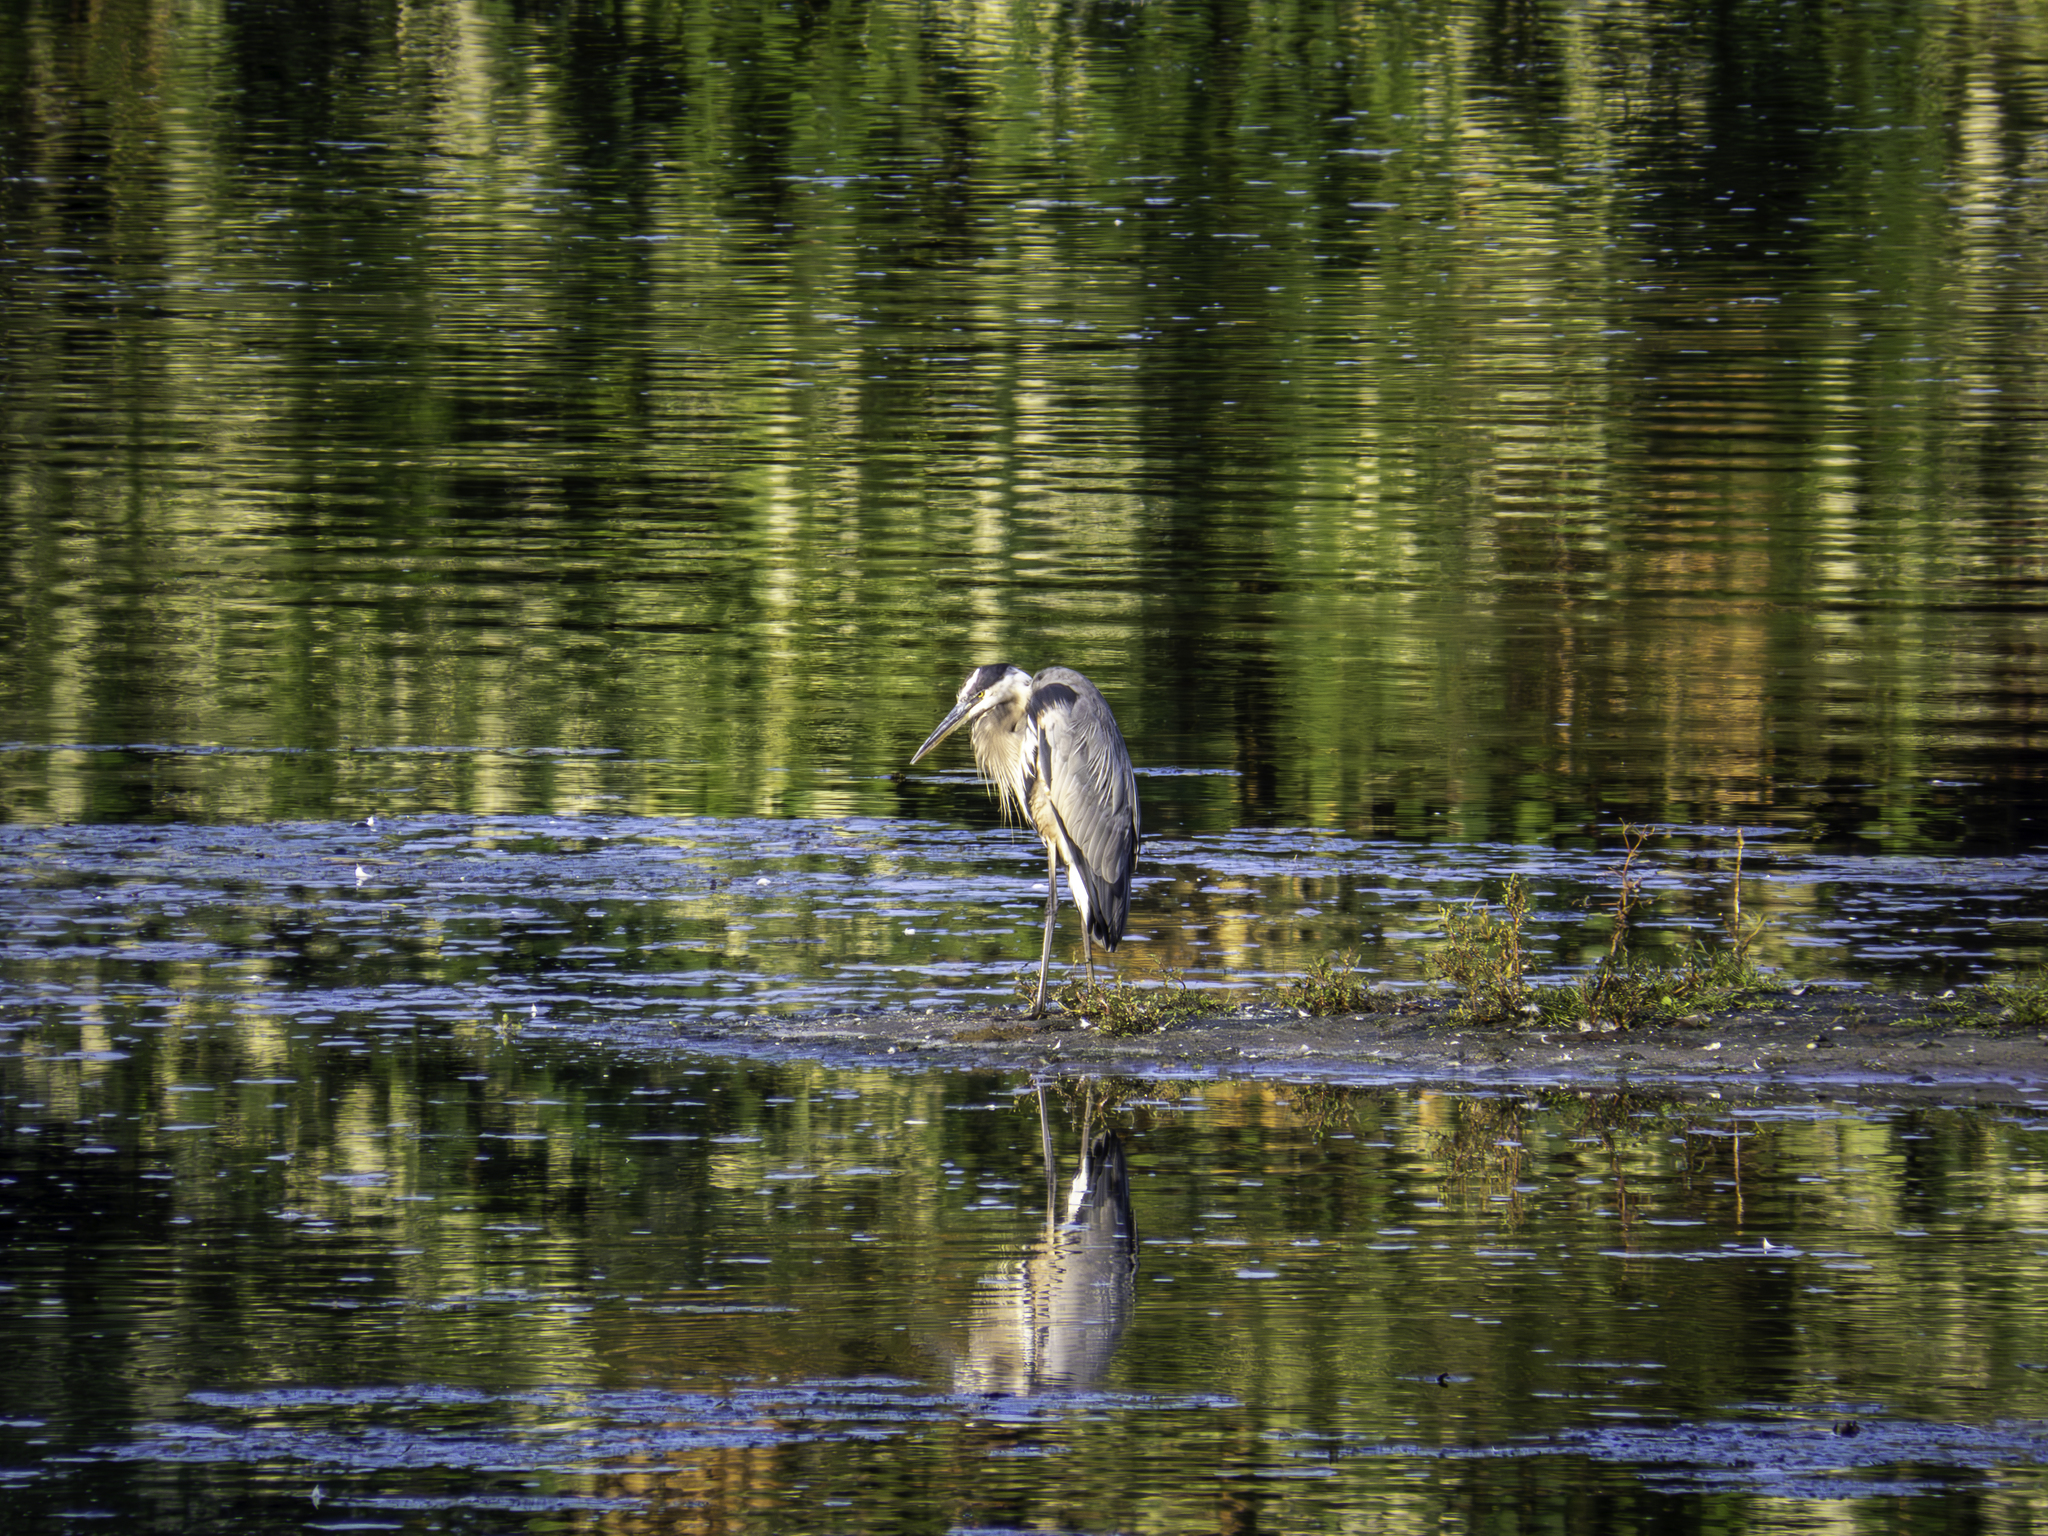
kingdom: Animalia
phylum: Chordata
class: Aves
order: Pelecaniformes
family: Ardeidae
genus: Ardea
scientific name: Ardea herodias
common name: Great blue heron
